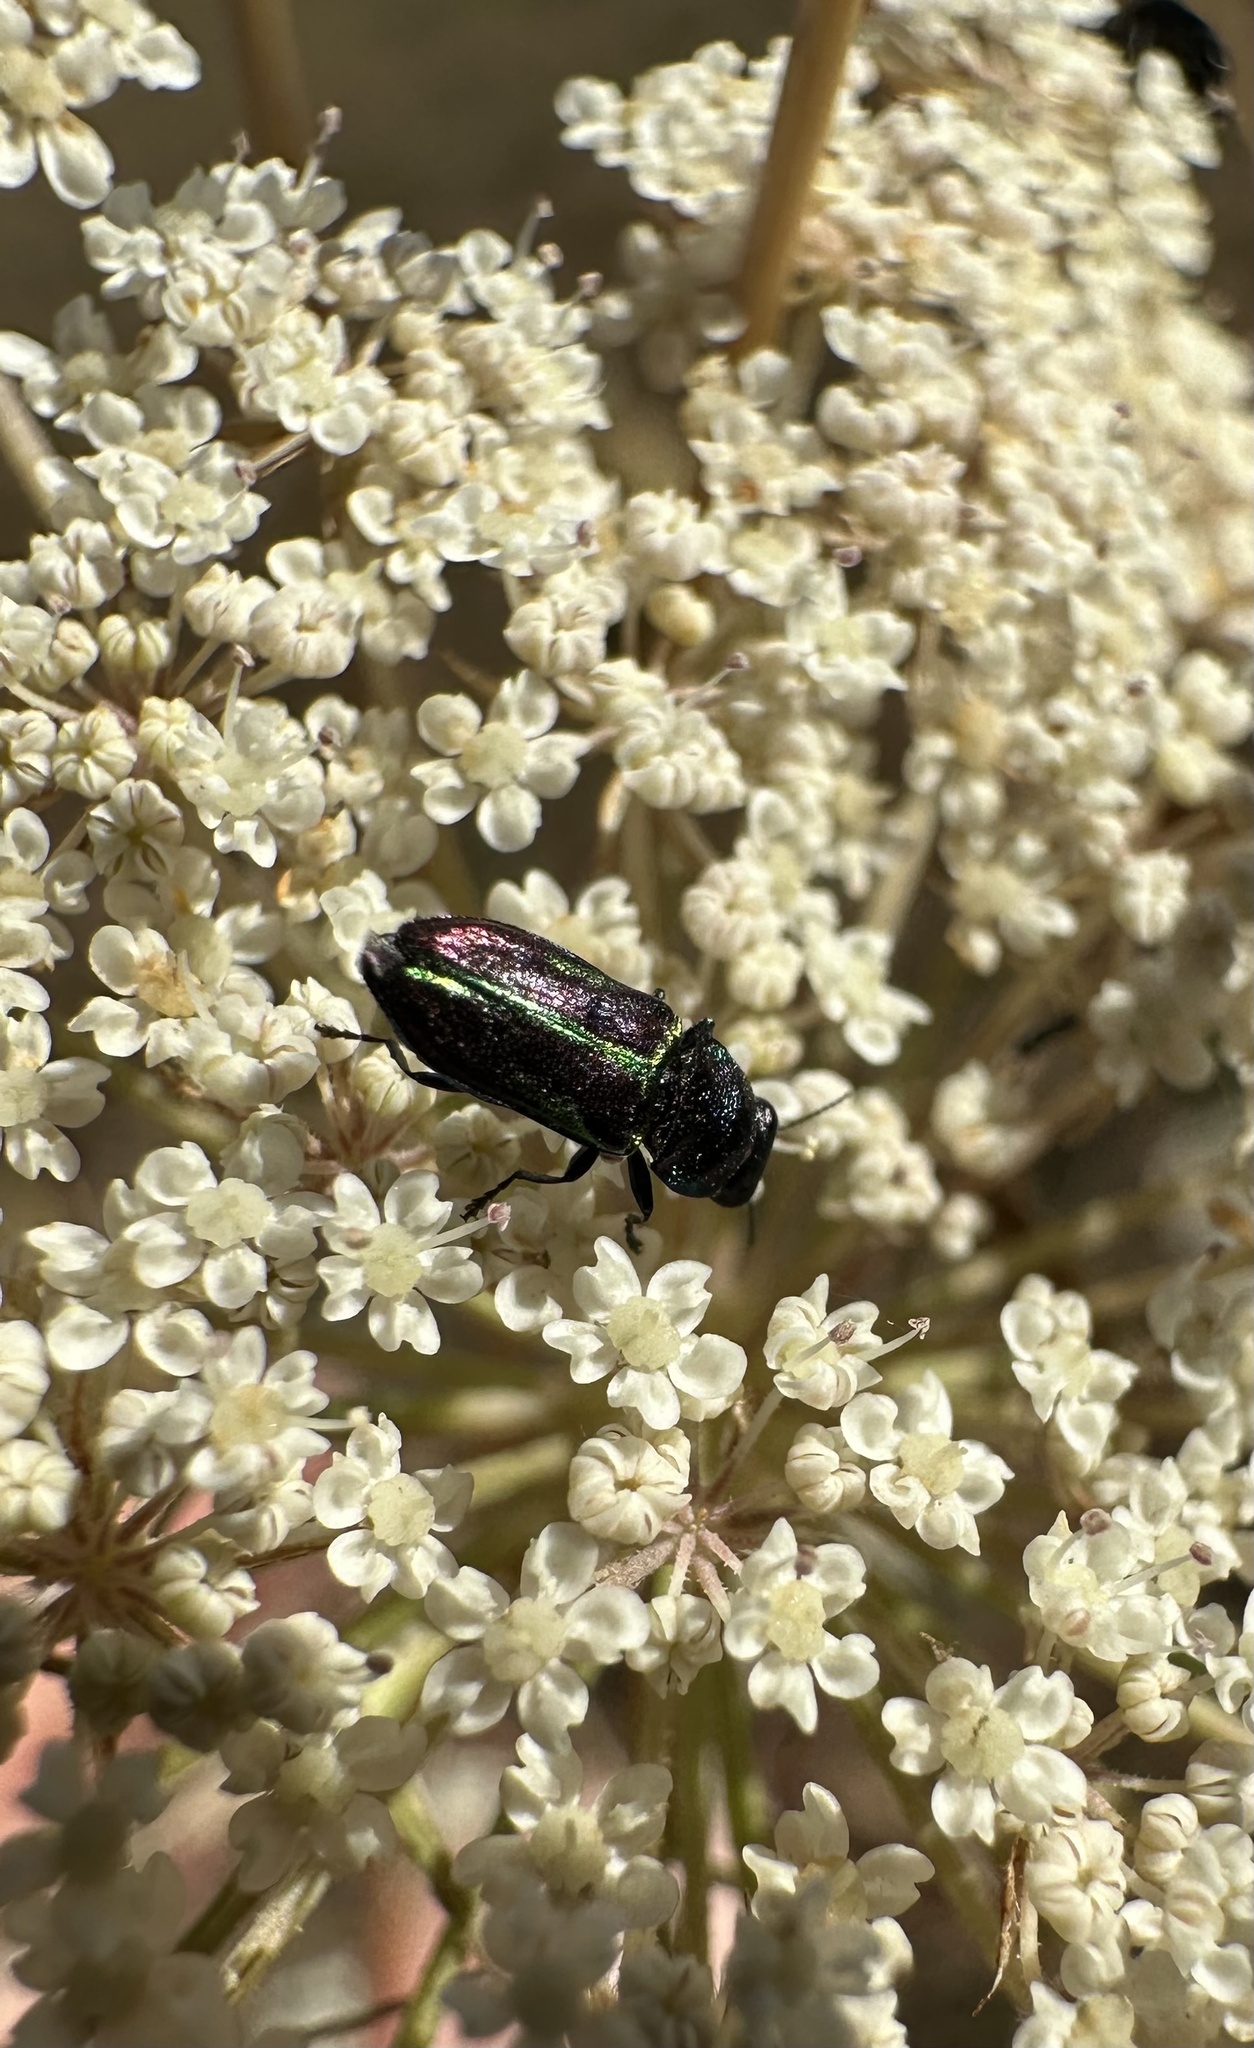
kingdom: Animalia
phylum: Arthropoda
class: Insecta
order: Coleoptera
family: Buprestidae
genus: Bilyaxia
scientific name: Bilyaxia concinna
